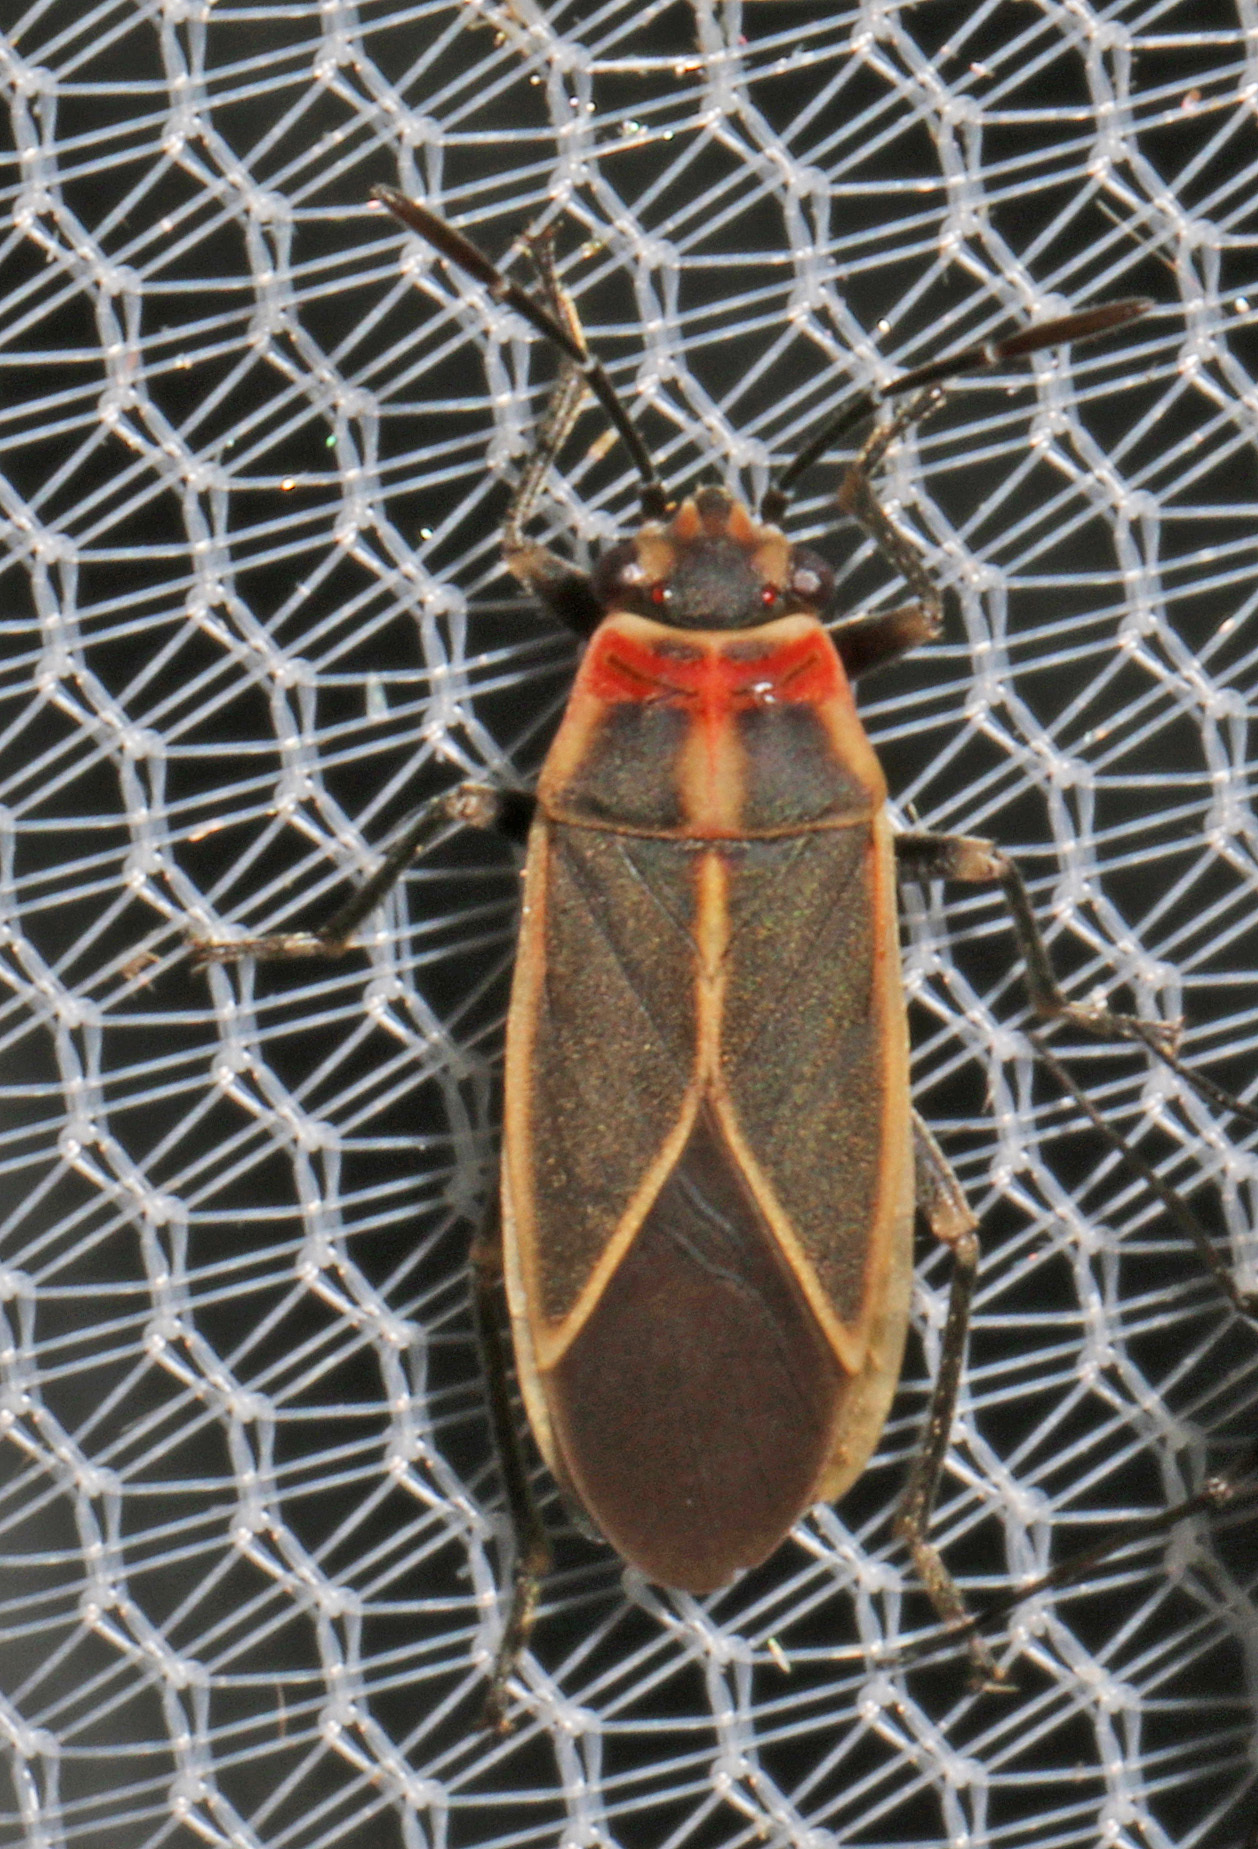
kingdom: Animalia
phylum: Arthropoda
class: Insecta
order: Hemiptera
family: Lygaeidae
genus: Ochrimnus
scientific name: Ochrimnus mimulus
